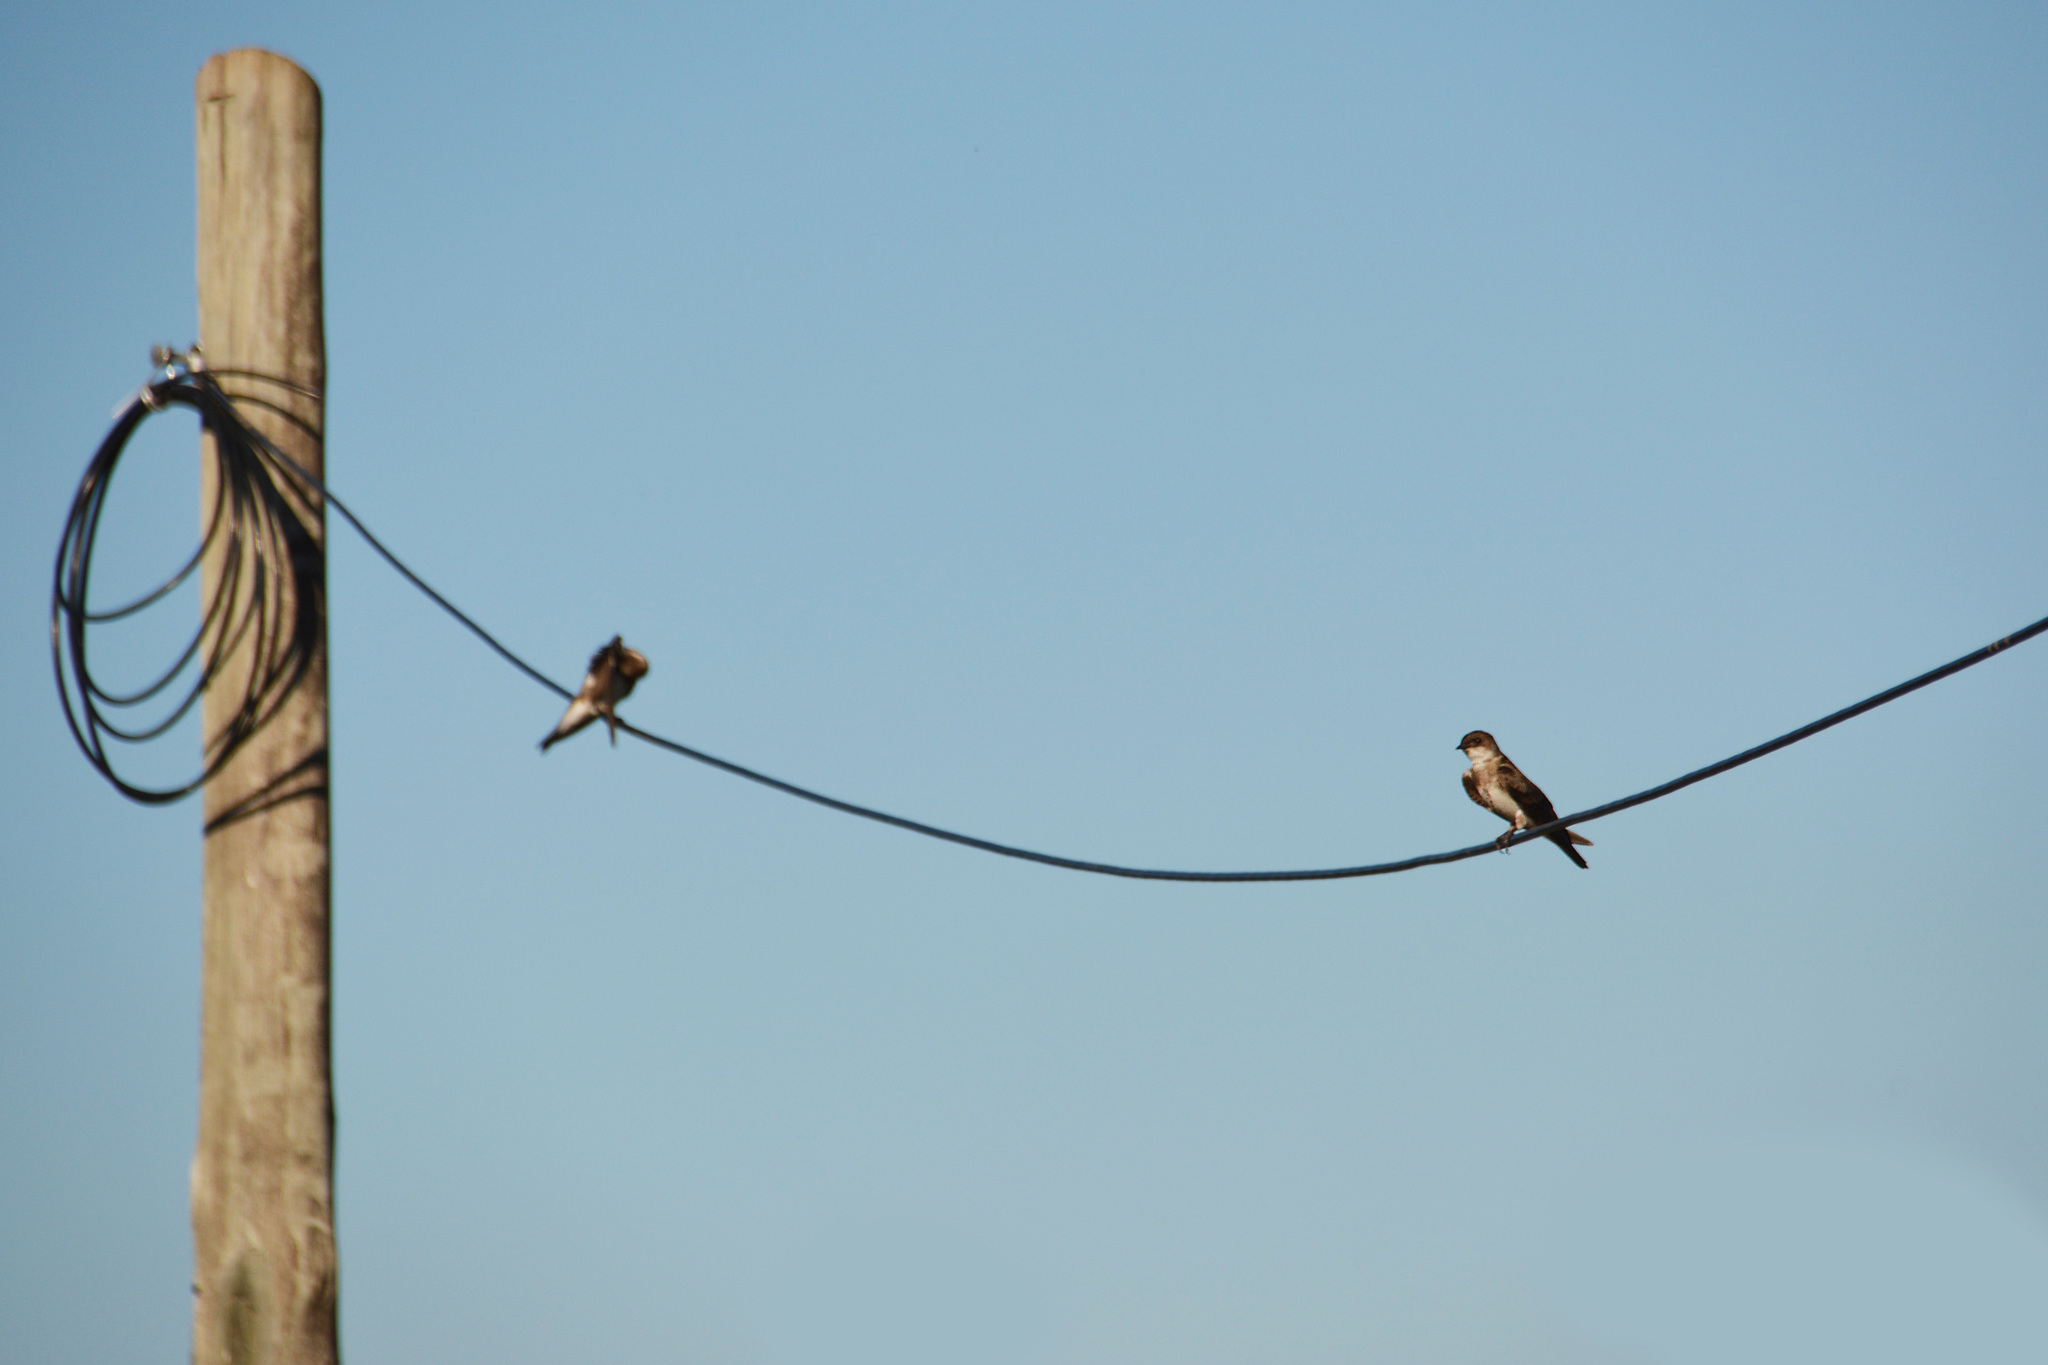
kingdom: Animalia
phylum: Chordata
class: Aves
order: Passeriformes
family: Hirundinidae
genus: Progne
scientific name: Progne tapera
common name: Brown-chested martin
